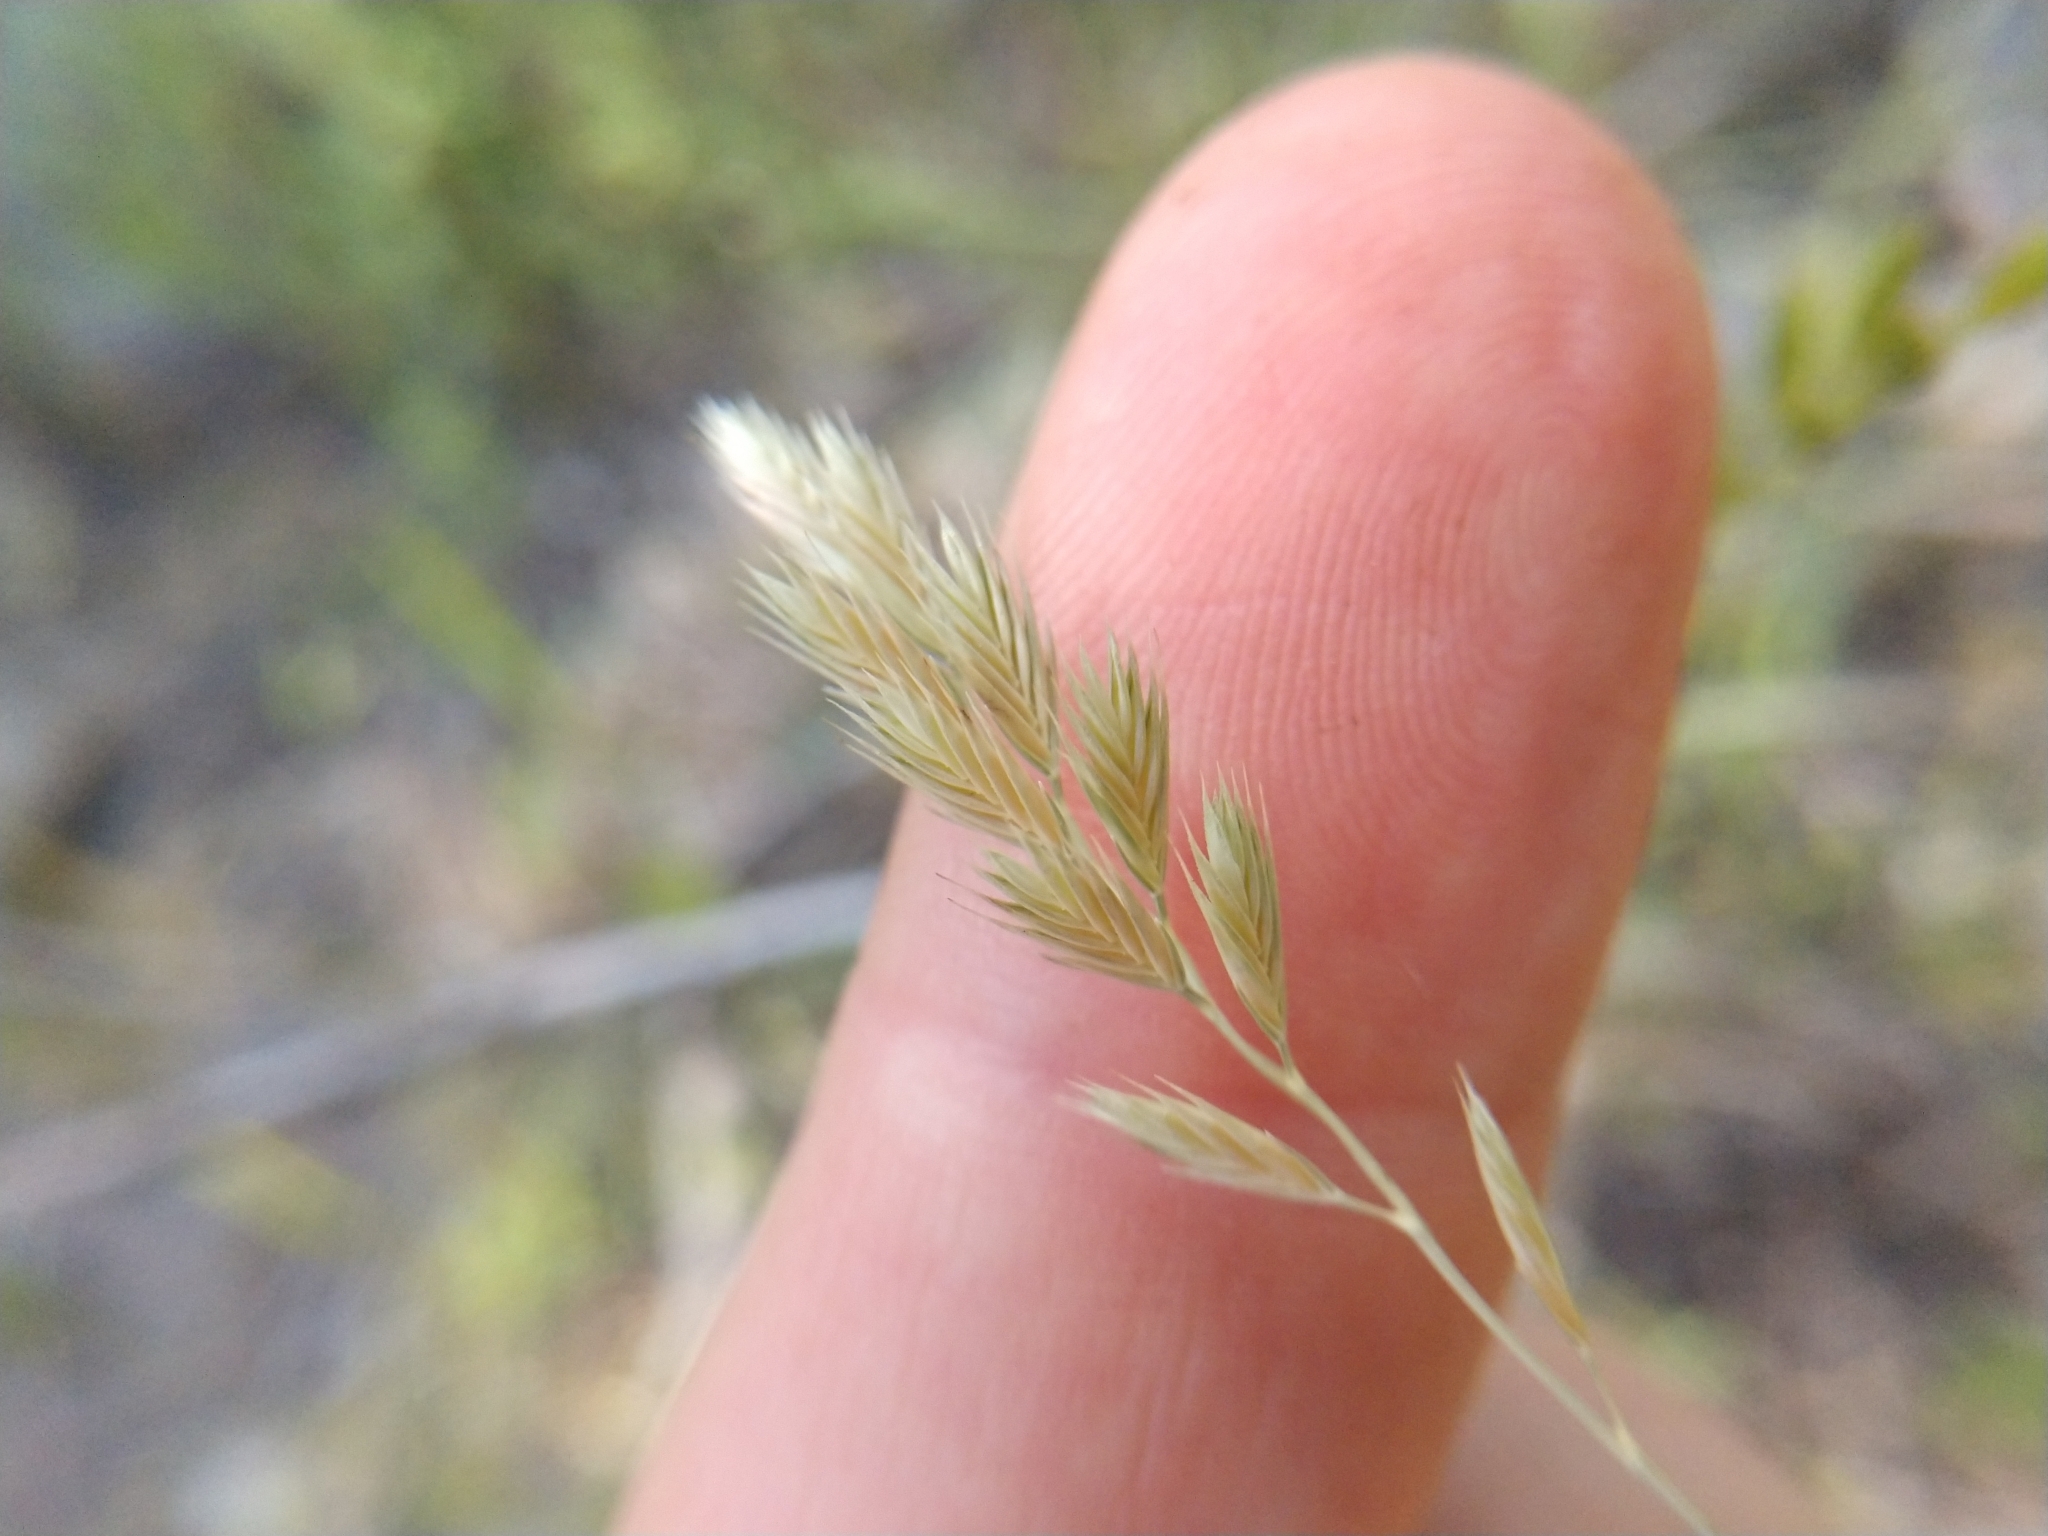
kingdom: Plantae
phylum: Tracheophyta
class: Liliopsida
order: Poales
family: Poaceae
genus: Festuca
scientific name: Festuca octoflora
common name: Sixweeks grass
